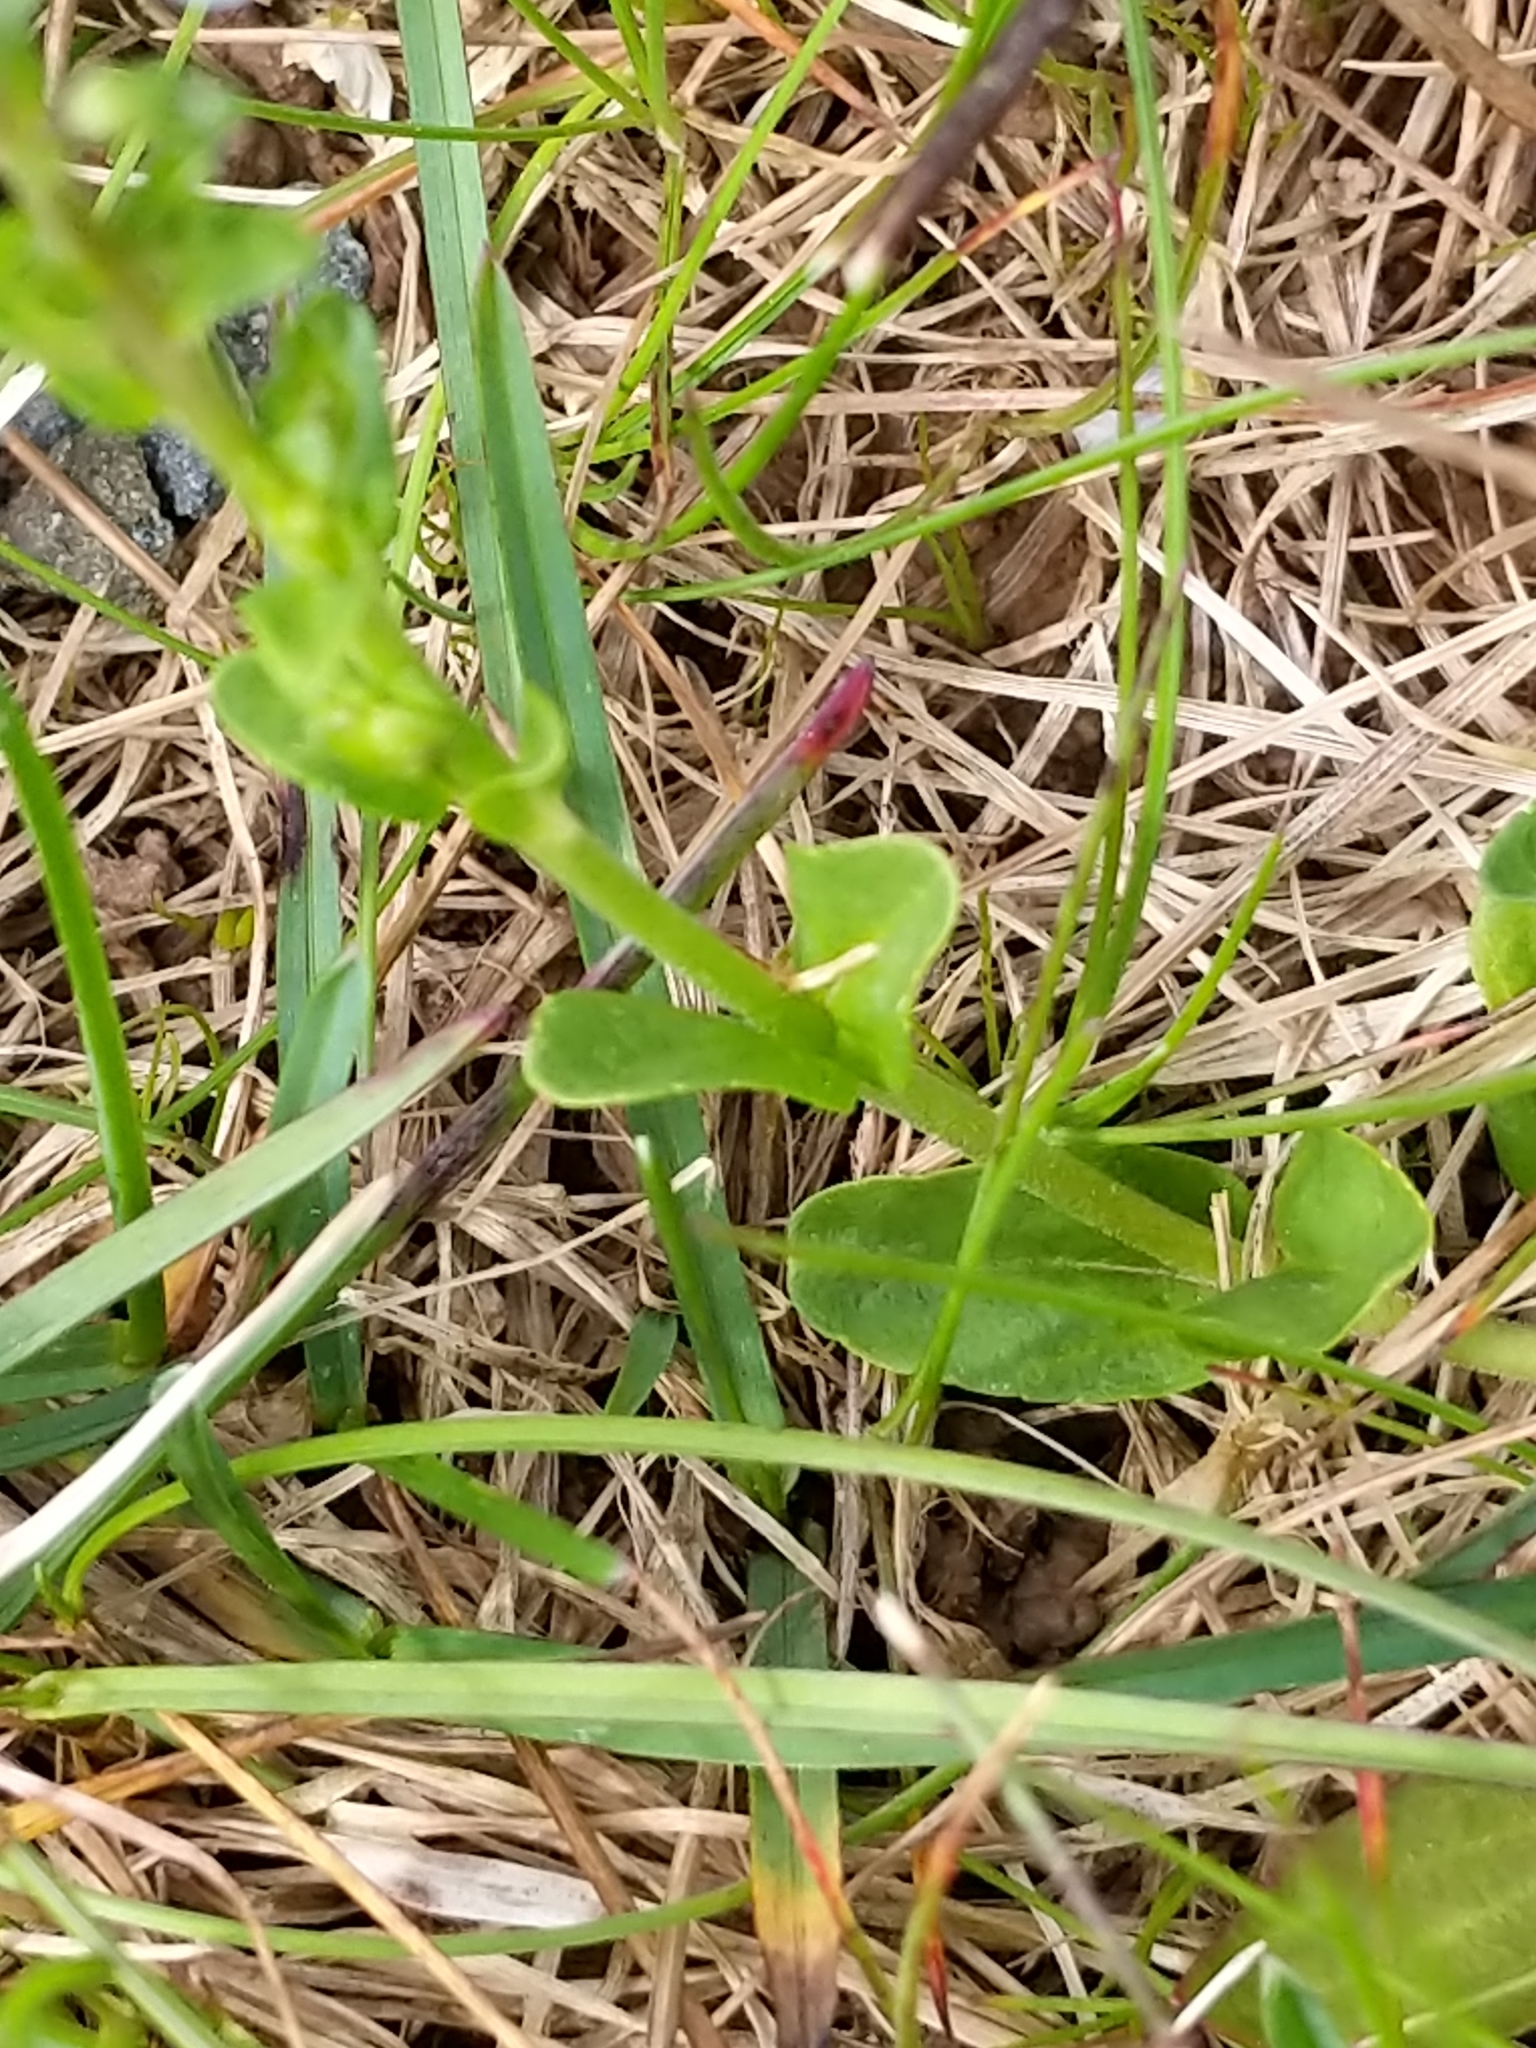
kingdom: Plantae
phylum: Tracheophyta
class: Magnoliopsida
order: Lamiales
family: Plantaginaceae
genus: Veronica
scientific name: Veronica serpyllifolia
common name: Thyme-leaved speedwell
